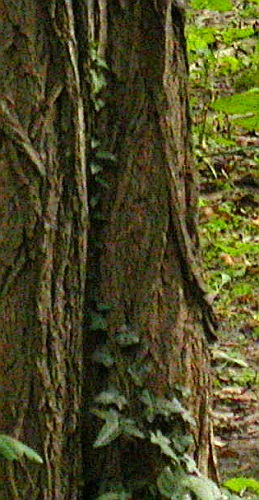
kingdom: Plantae
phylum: Tracheophyta
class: Magnoliopsida
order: Apiales
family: Araliaceae
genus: Hedera
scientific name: Hedera helix
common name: Ivy
